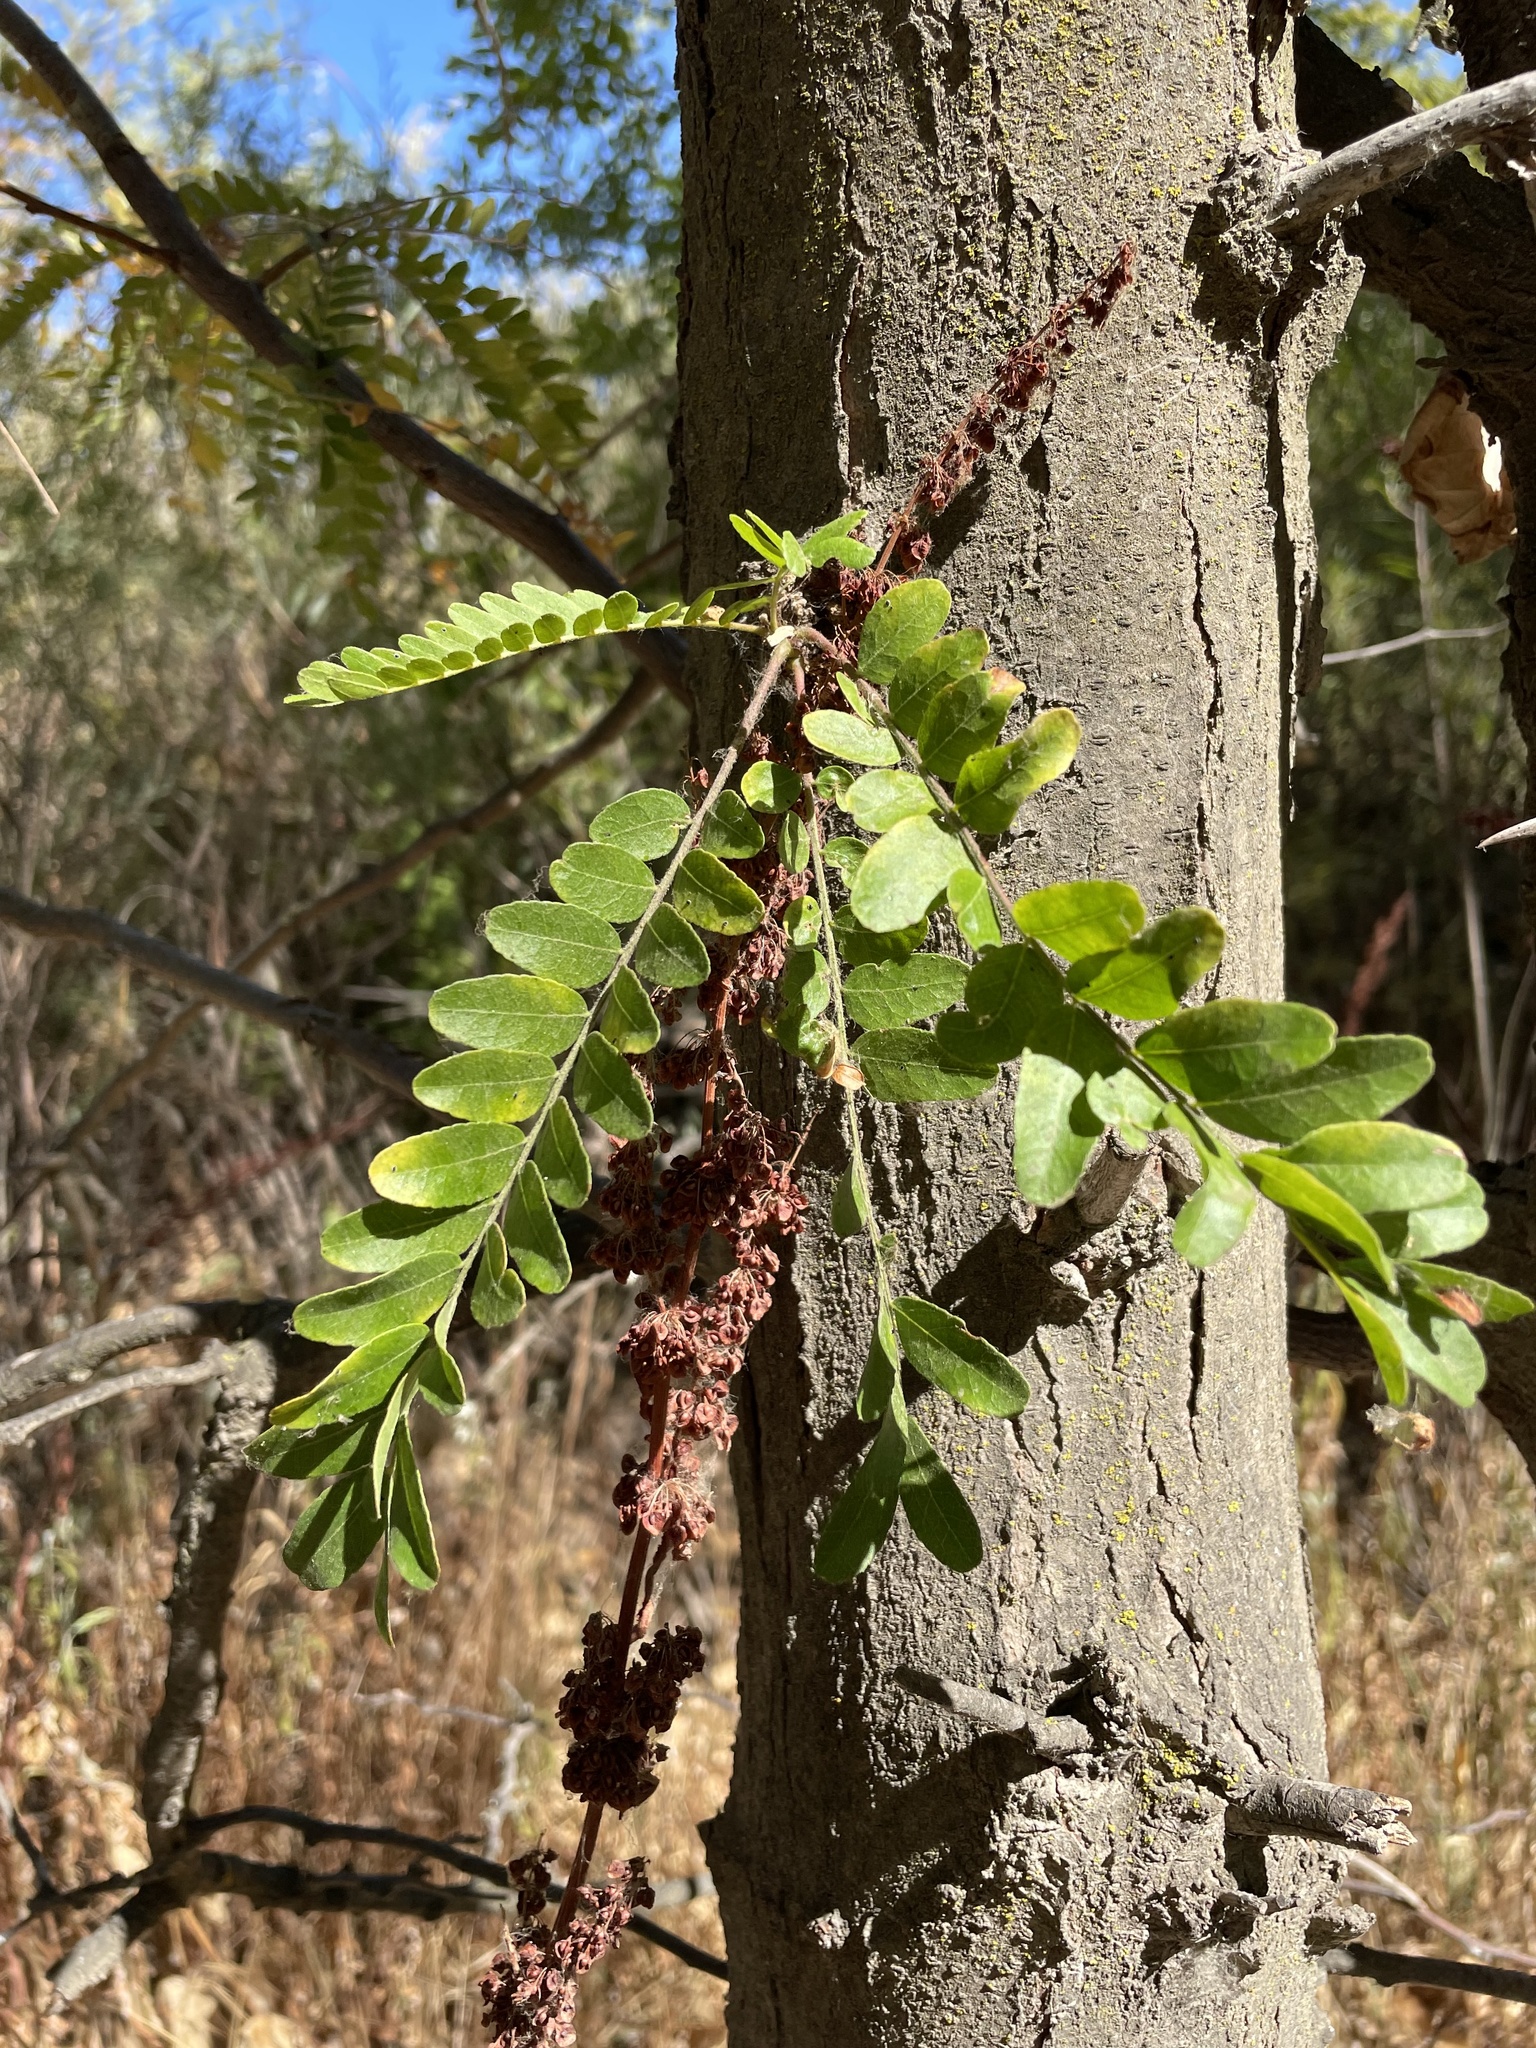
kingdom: Plantae
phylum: Tracheophyta
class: Magnoliopsida
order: Fabales
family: Fabaceae
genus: Gleditsia
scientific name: Gleditsia triacanthos
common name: Common honeylocust
